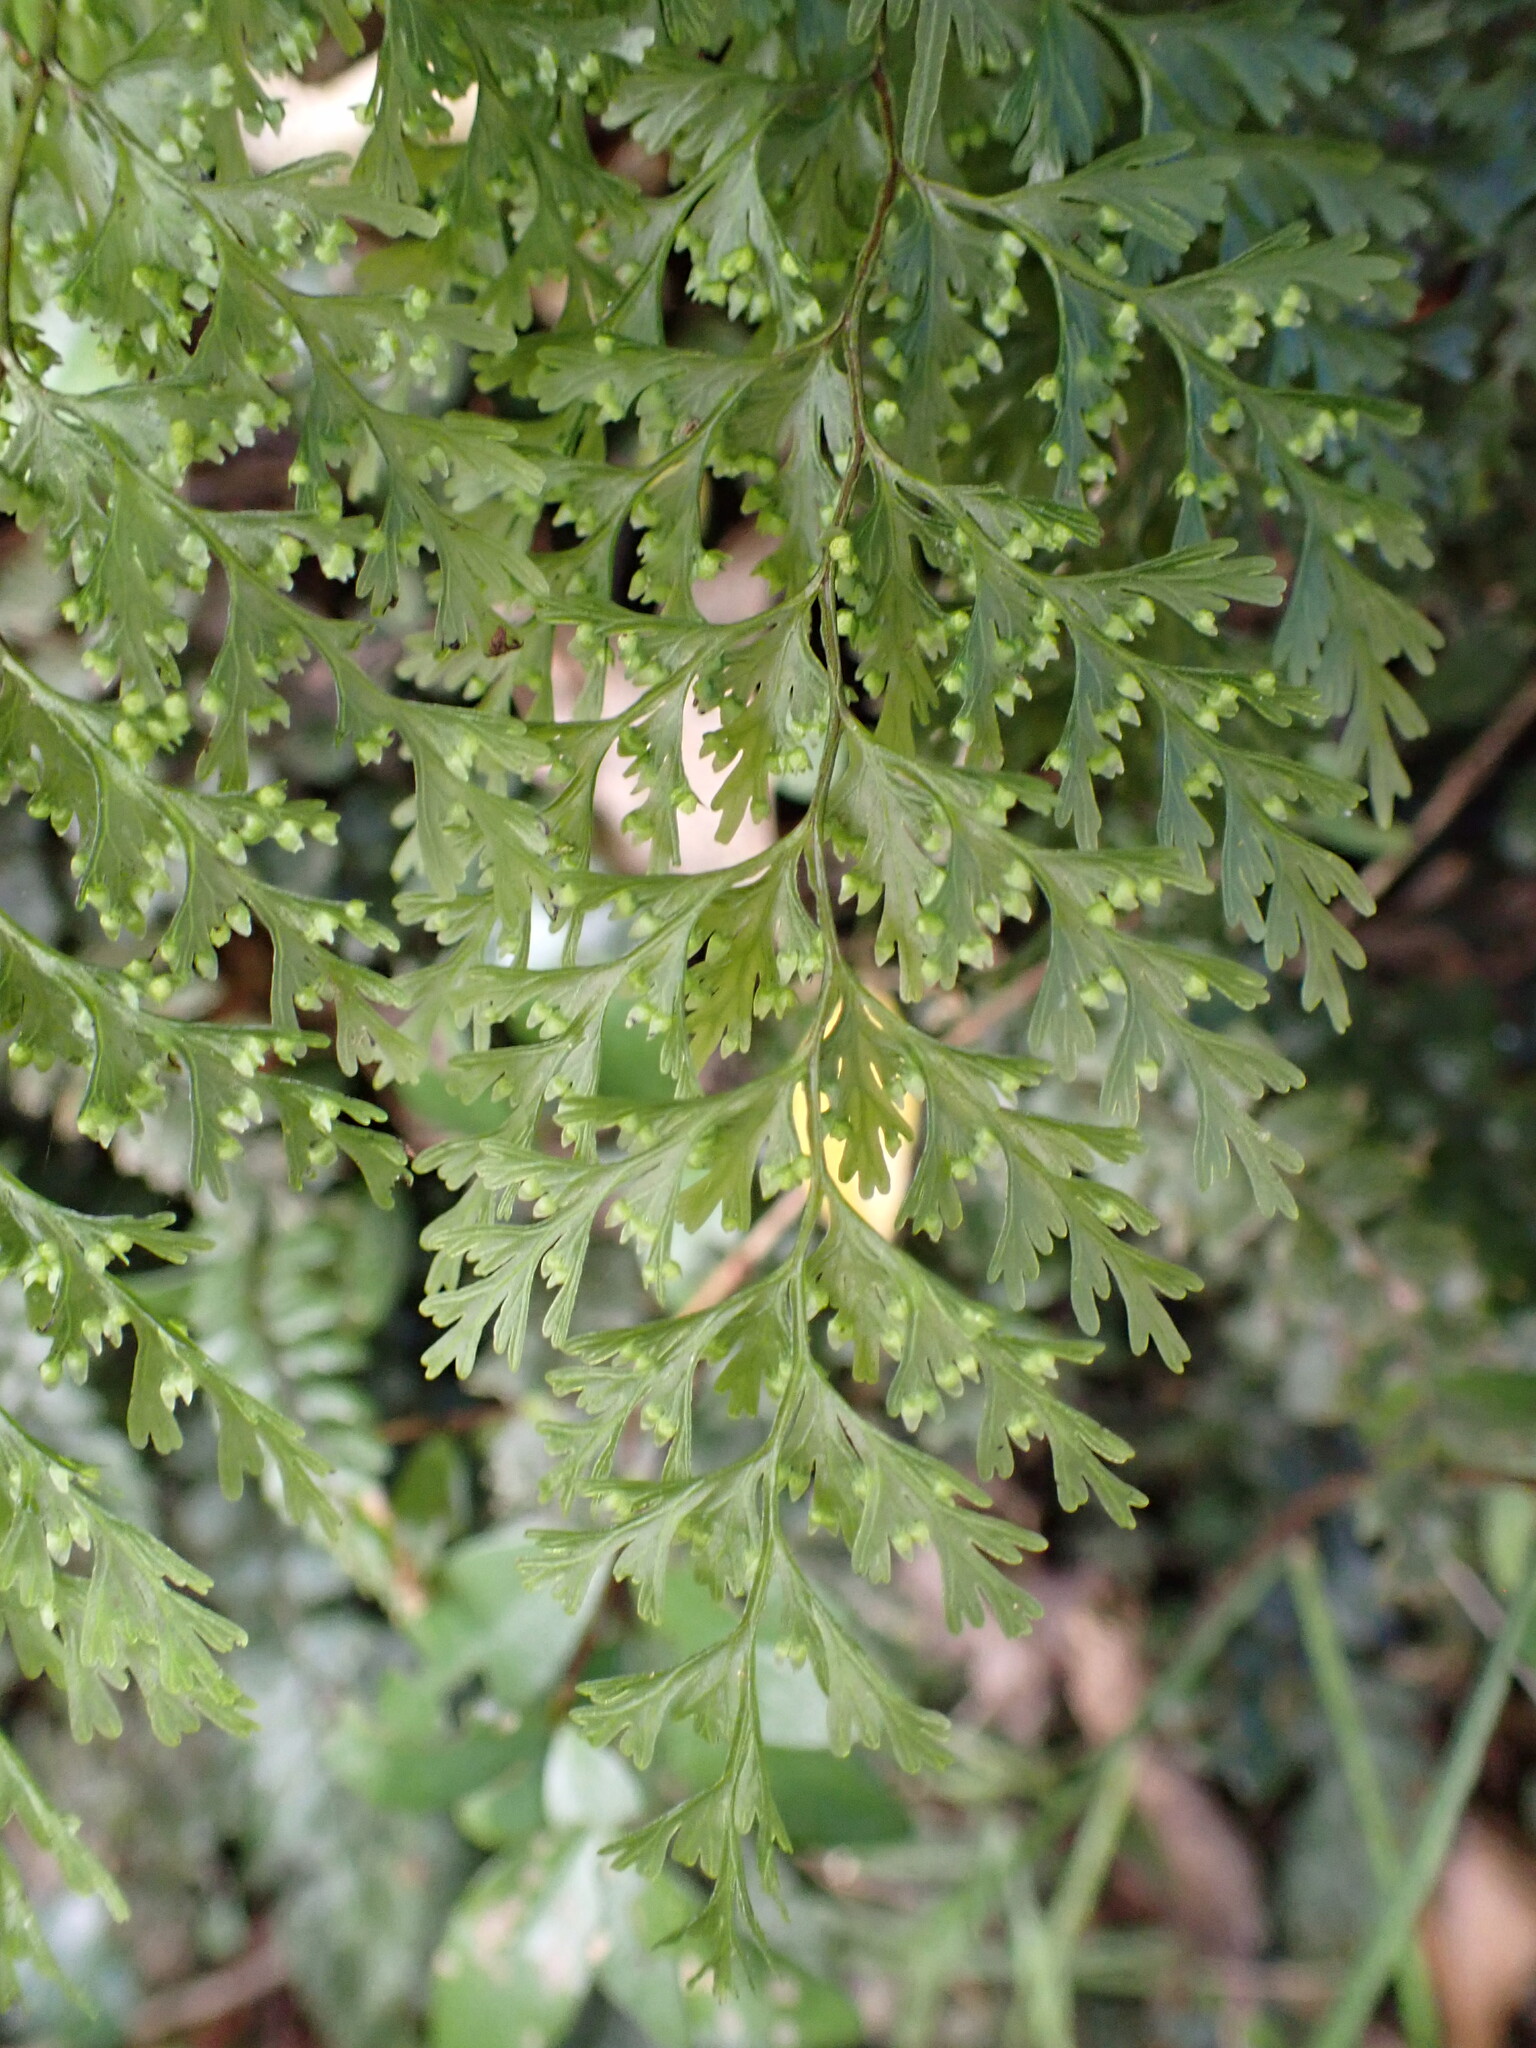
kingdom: Plantae
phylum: Tracheophyta
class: Polypodiopsida
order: Hymenophyllales
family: Hymenophyllaceae
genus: Hymenophyllum
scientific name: Hymenophyllum demissum
